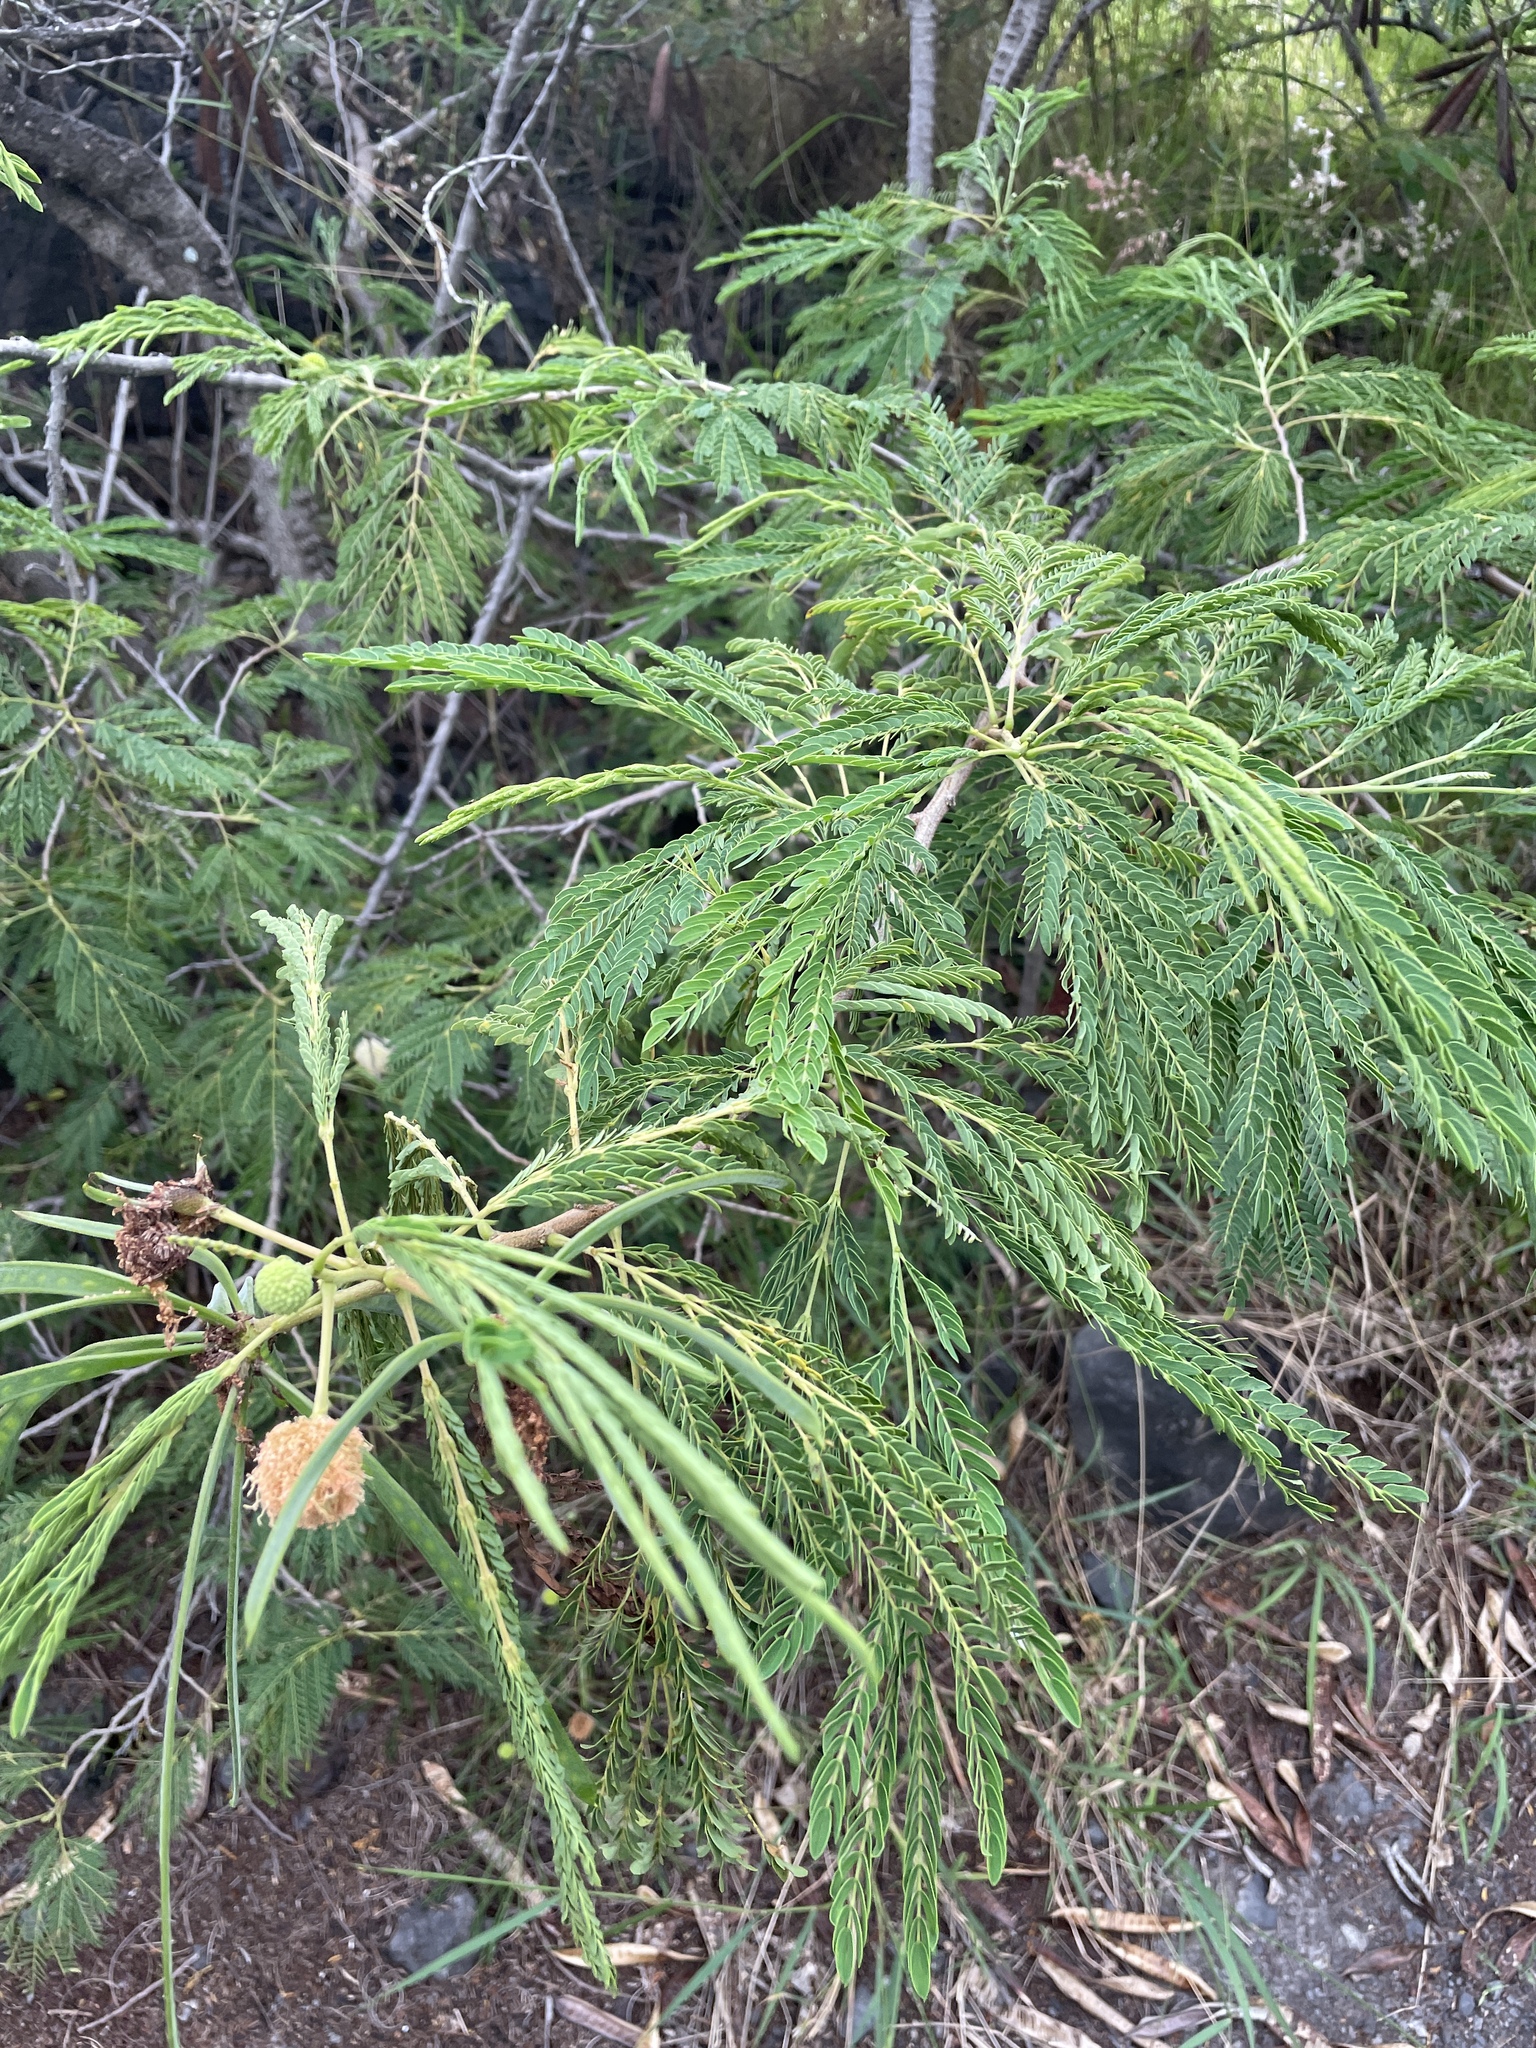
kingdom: Plantae
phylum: Tracheophyta
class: Magnoliopsida
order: Fabales
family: Fabaceae
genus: Leucaena
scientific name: Leucaena leucocephala
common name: White leadtree
